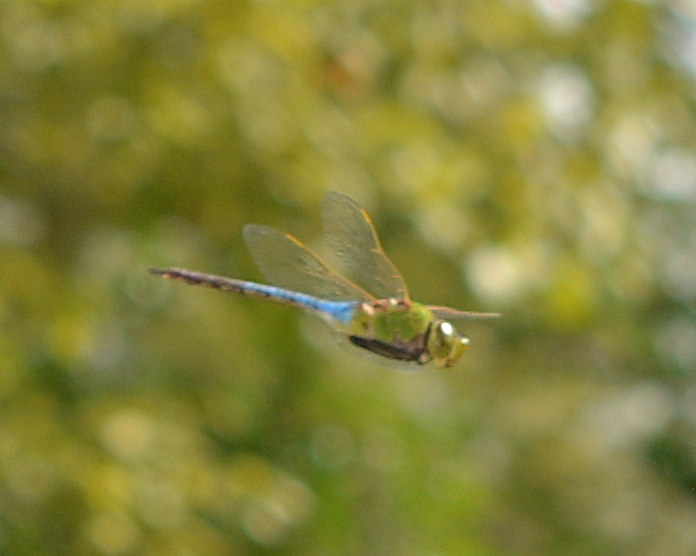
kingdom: Animalia
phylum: Arthropoda
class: Insecta
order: Odonata
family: Aeshnidae
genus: Anax
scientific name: Anax junius
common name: Common green darner
